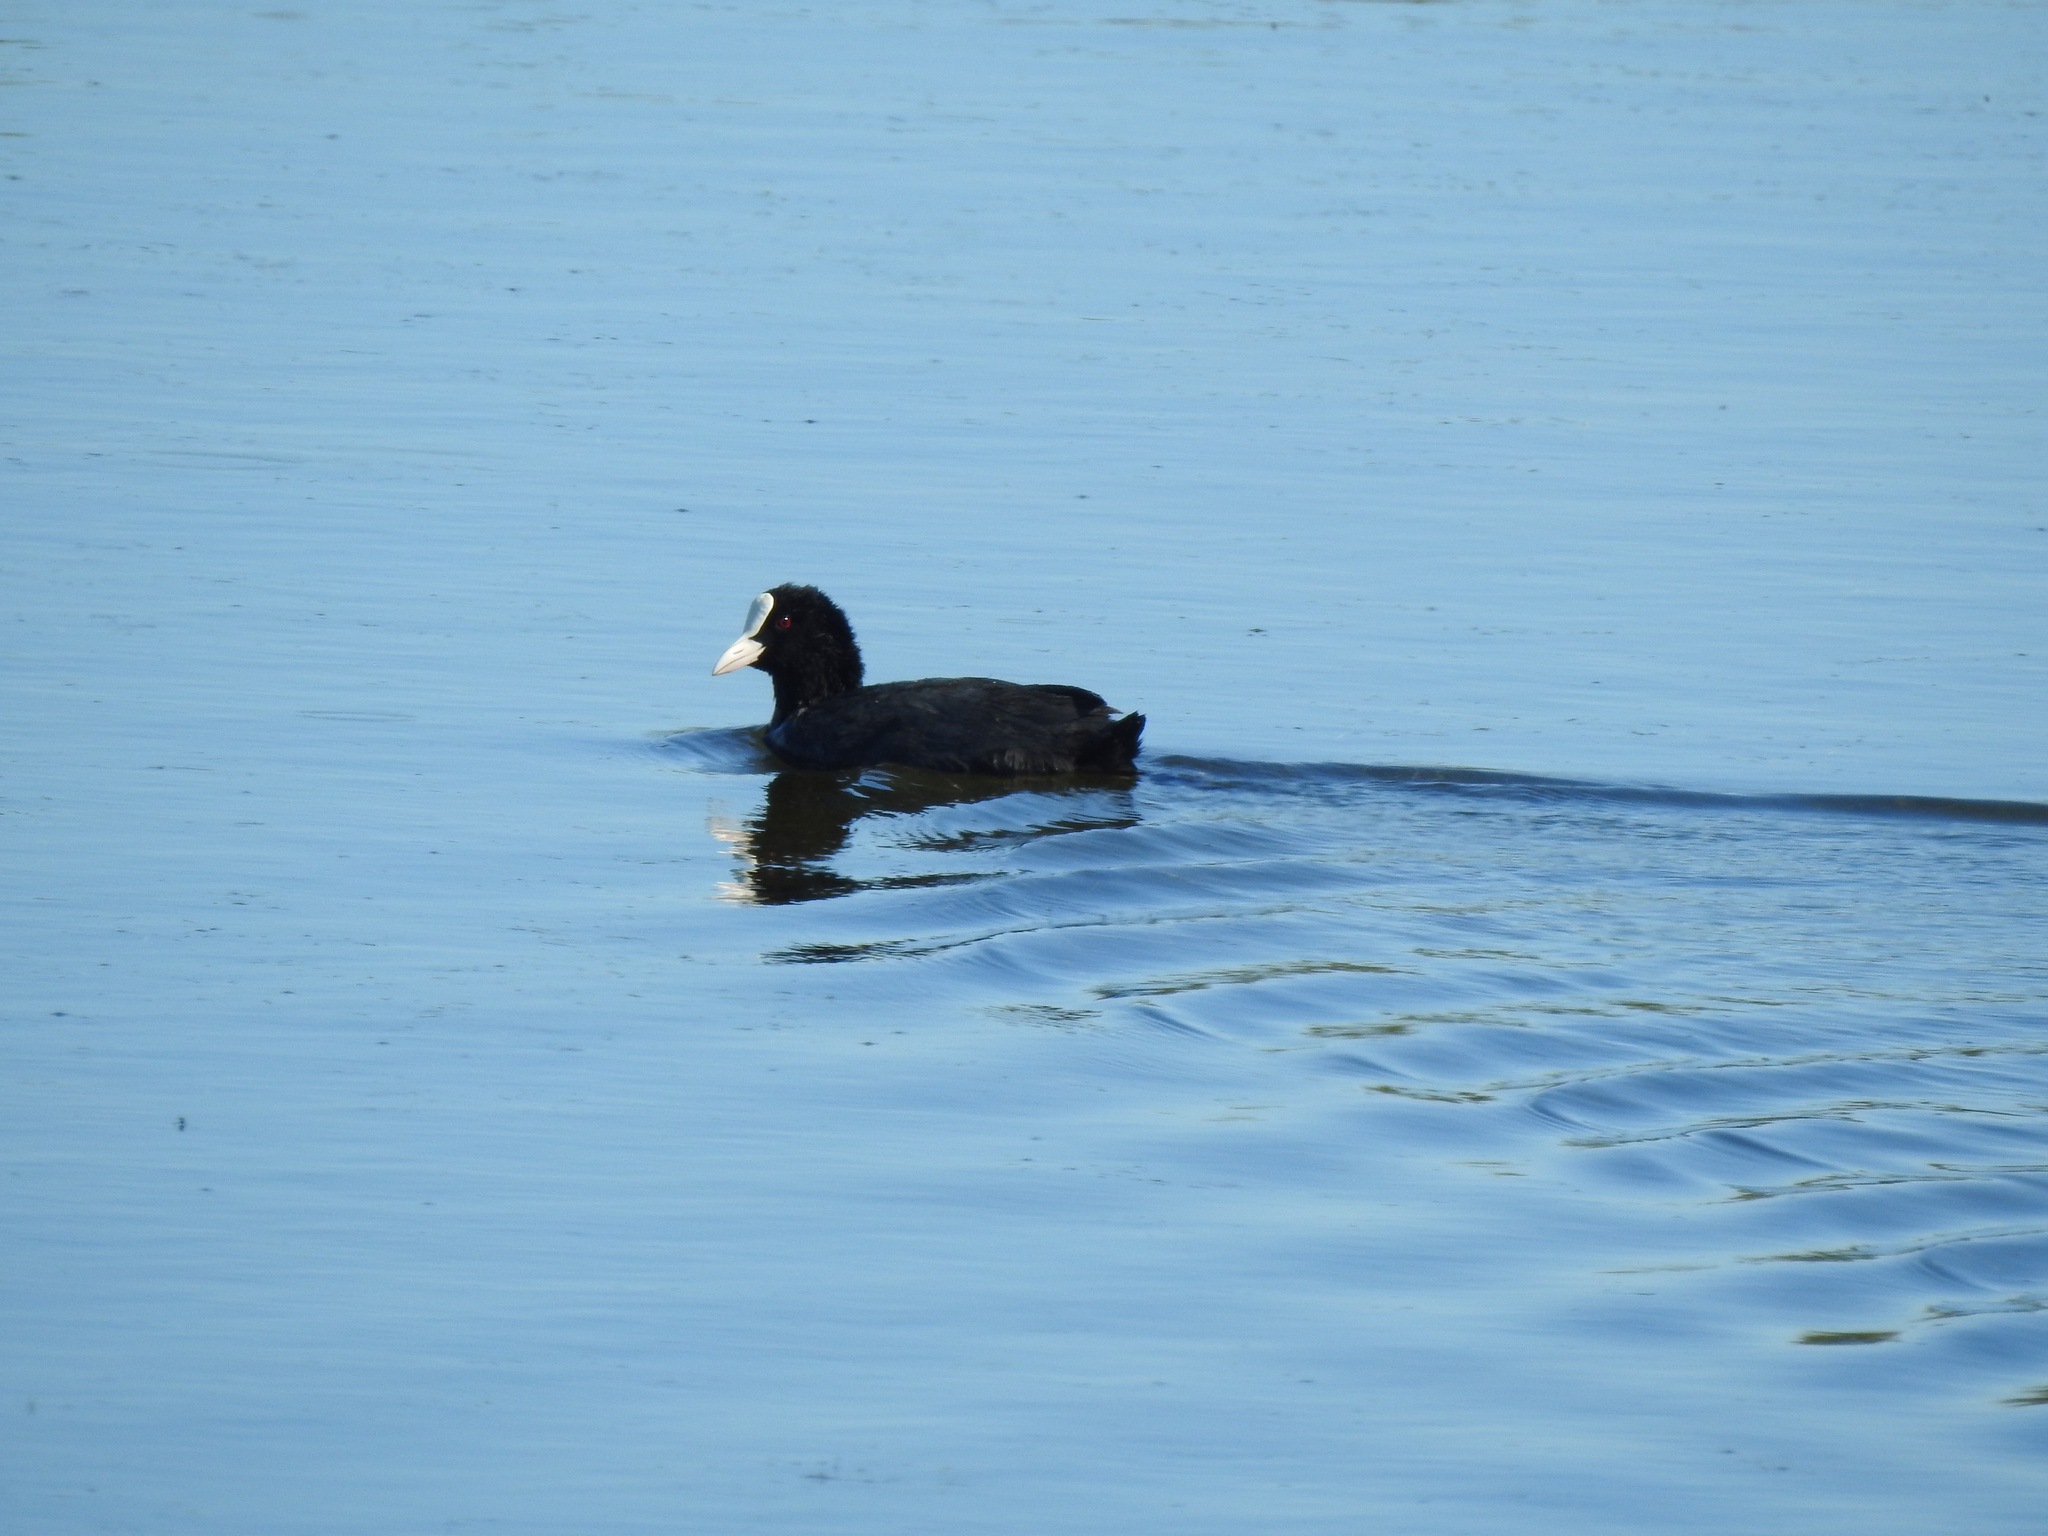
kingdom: Animalia
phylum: Chordata
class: Aves
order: Gruiformes
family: Rallidae
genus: Fulica
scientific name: Fulica atra
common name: Eurasian coot
